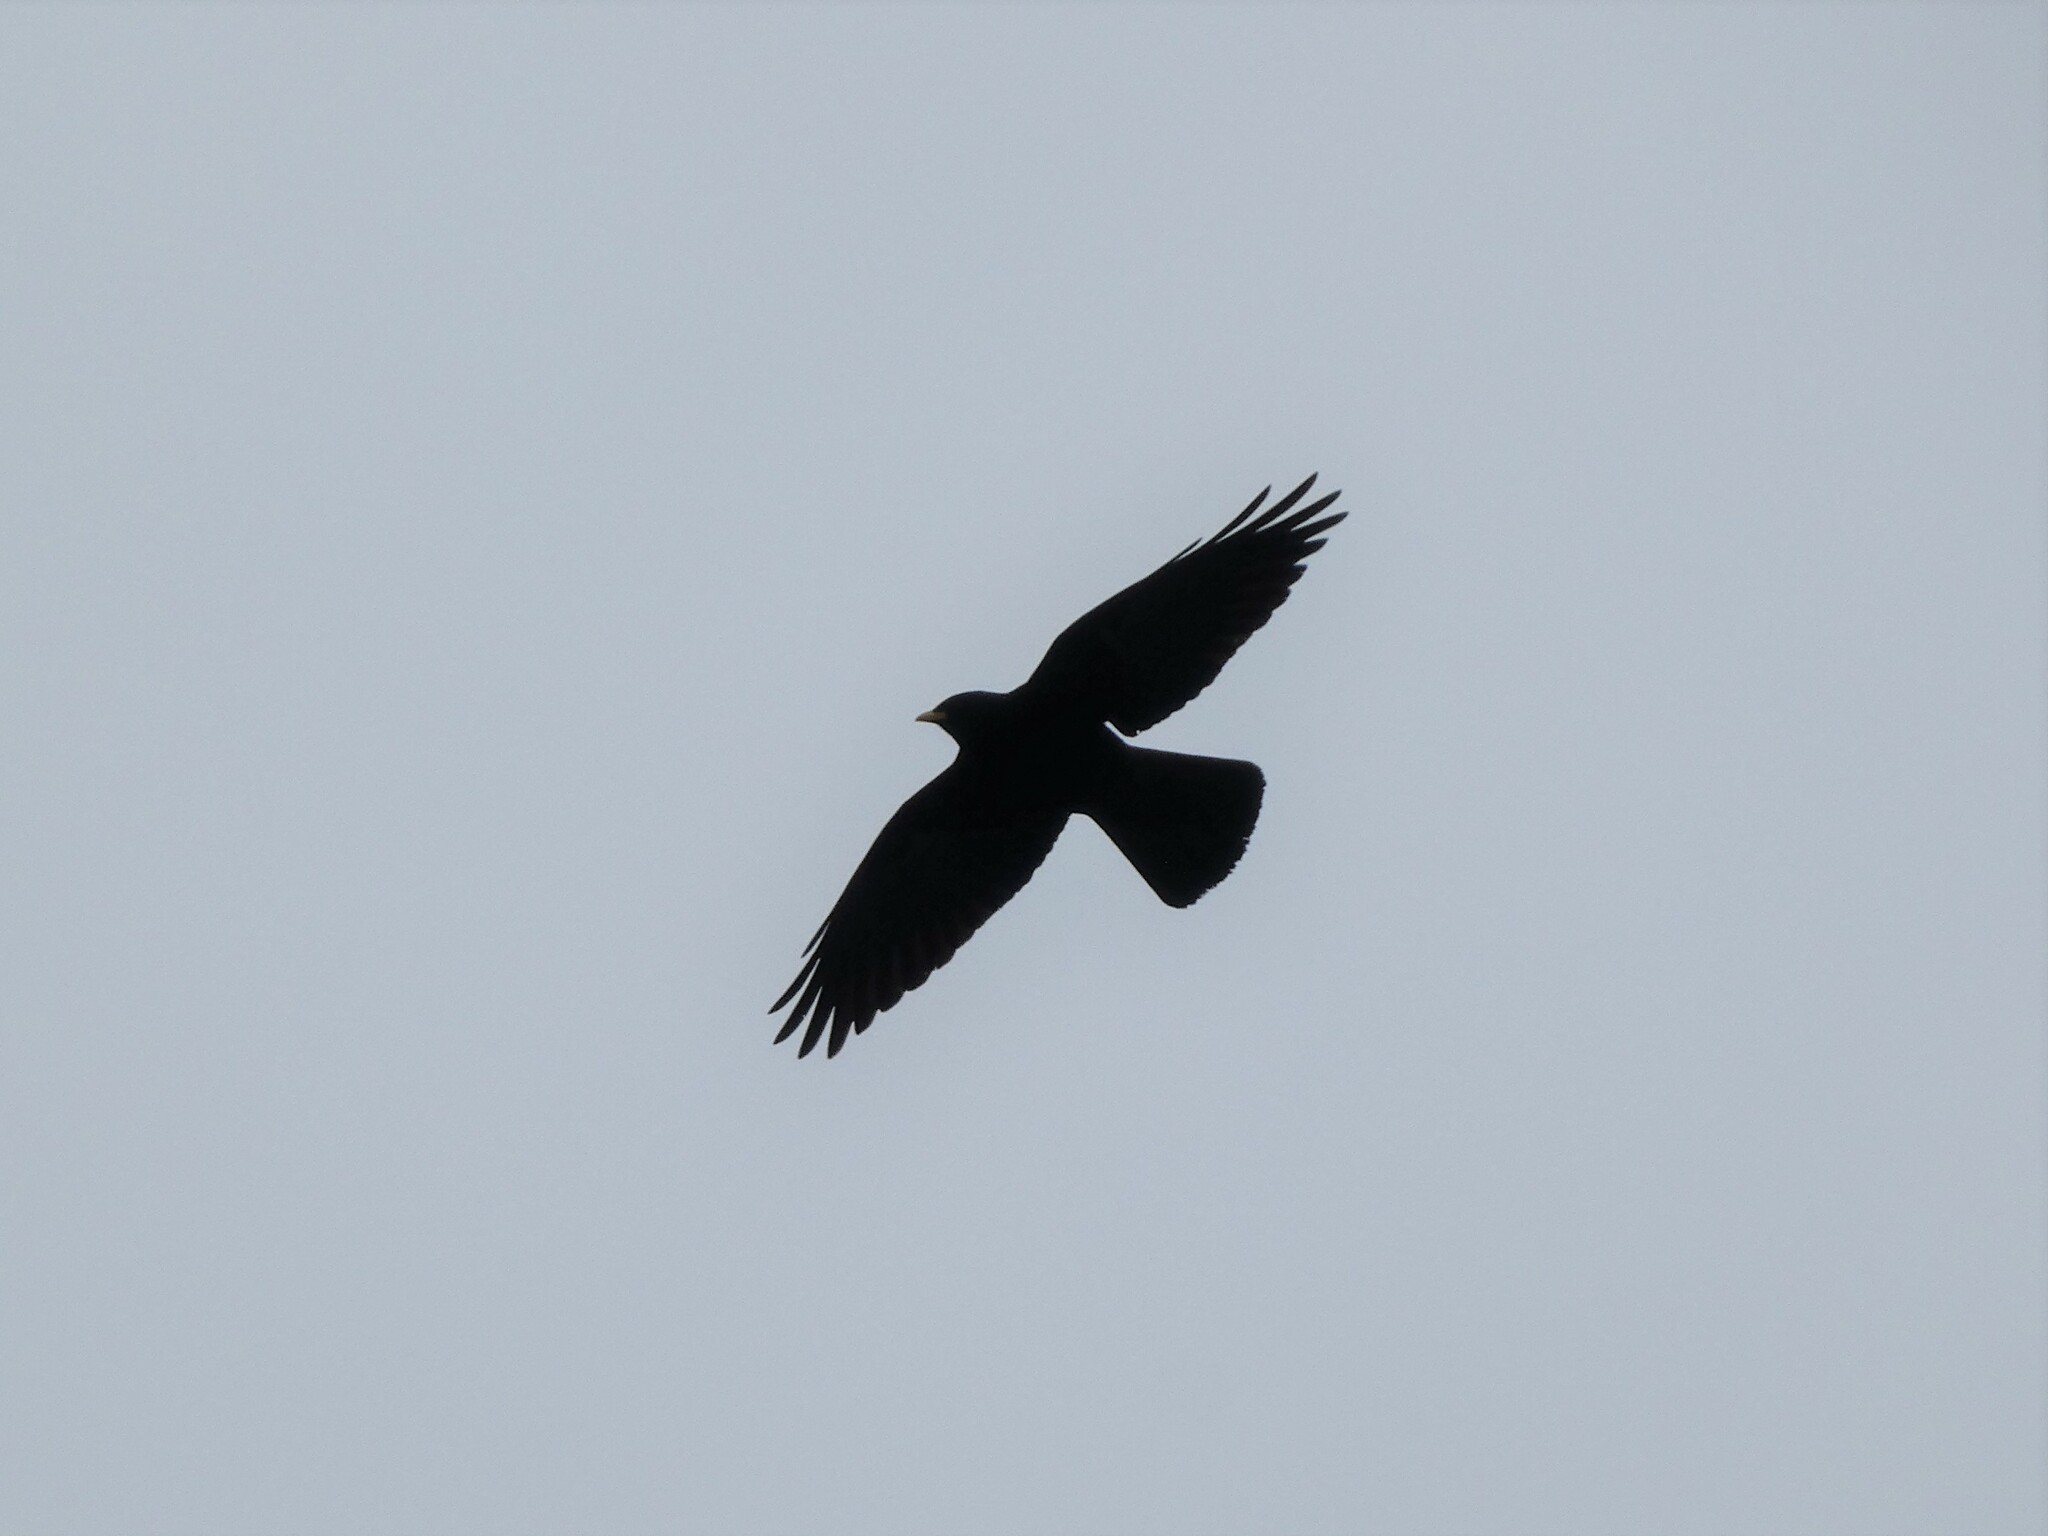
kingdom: Animalia
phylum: Chordata
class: Aves
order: Passeriformes
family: Corvidae
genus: Pyrrhocorax
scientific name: Pyrrhocorax graculus
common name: Alpine chough
